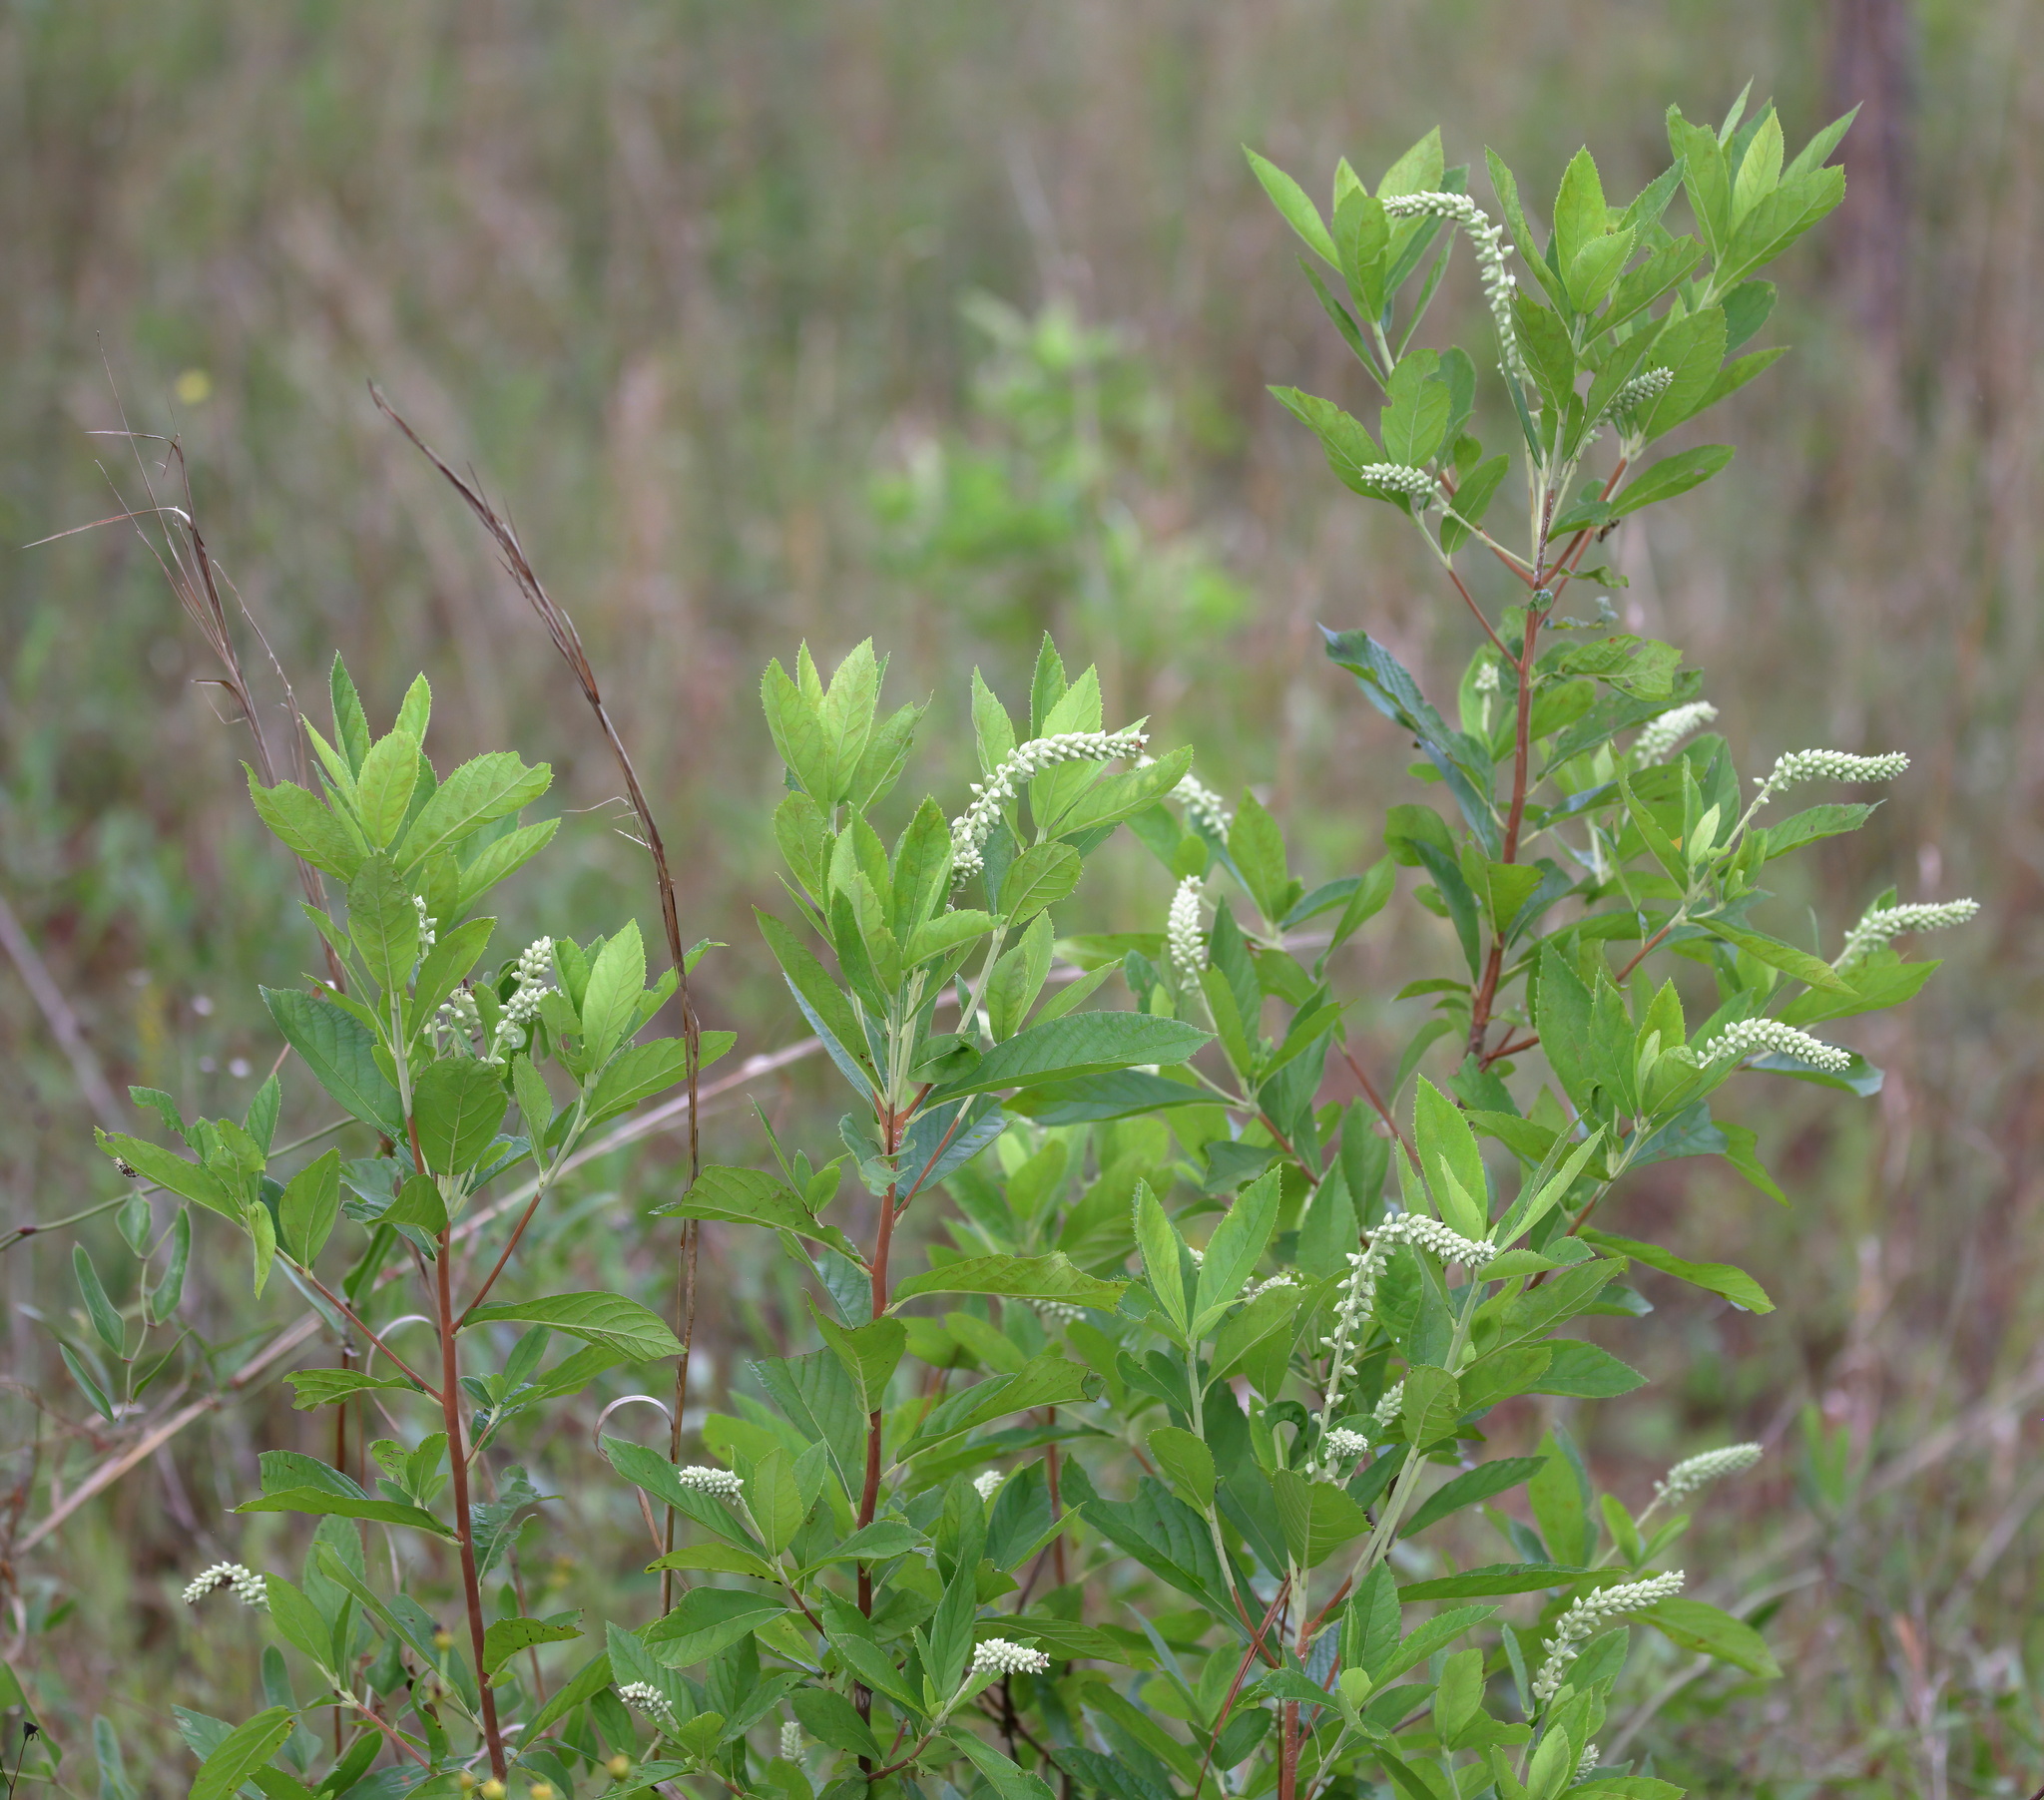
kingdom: Plantae
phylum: Tracheophyta
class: Magnoliopsida
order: Ericales
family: Clethraceae
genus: Clethra
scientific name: Clethra alnifolia
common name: Sweet pepperbush
